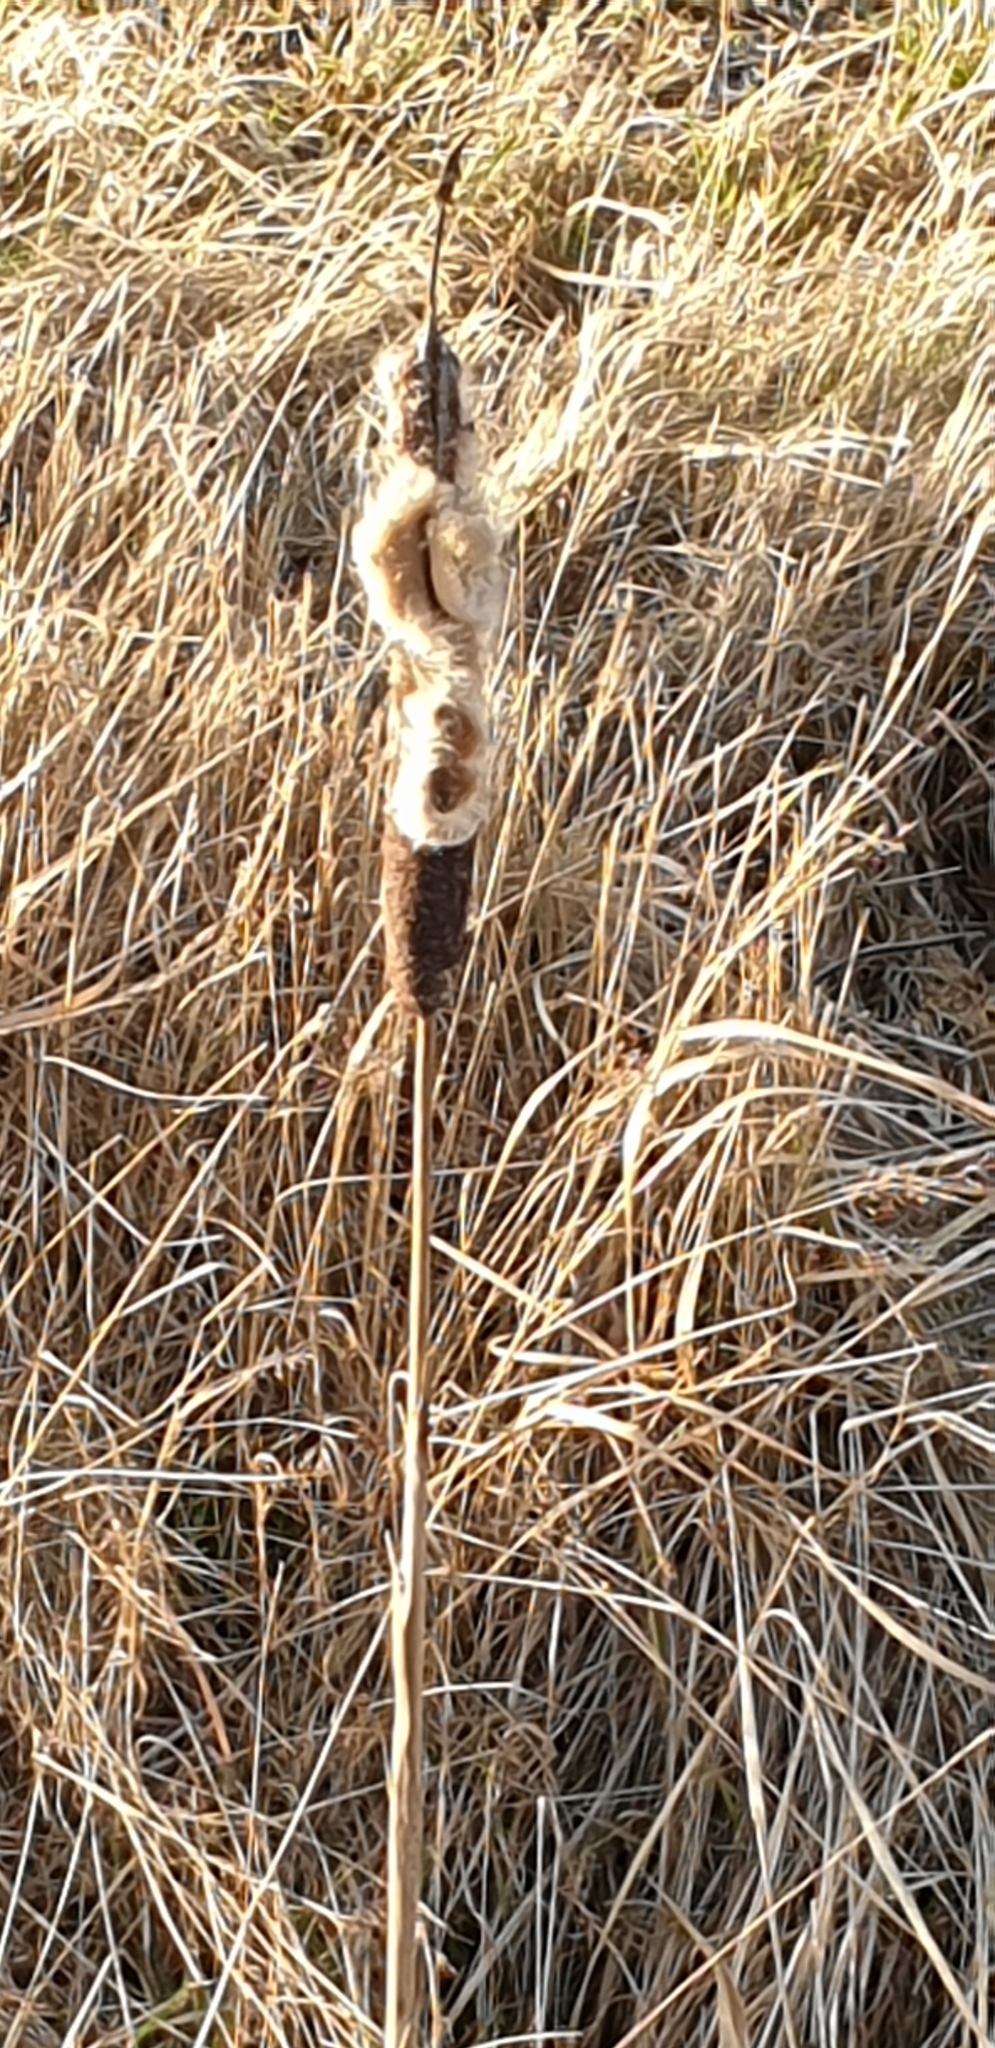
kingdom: Plantae
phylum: Tracheophyta
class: Liliopsida
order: Poales
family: Typhaceae
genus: Typha
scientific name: Typha latifolia
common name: Broadleaf cattail
